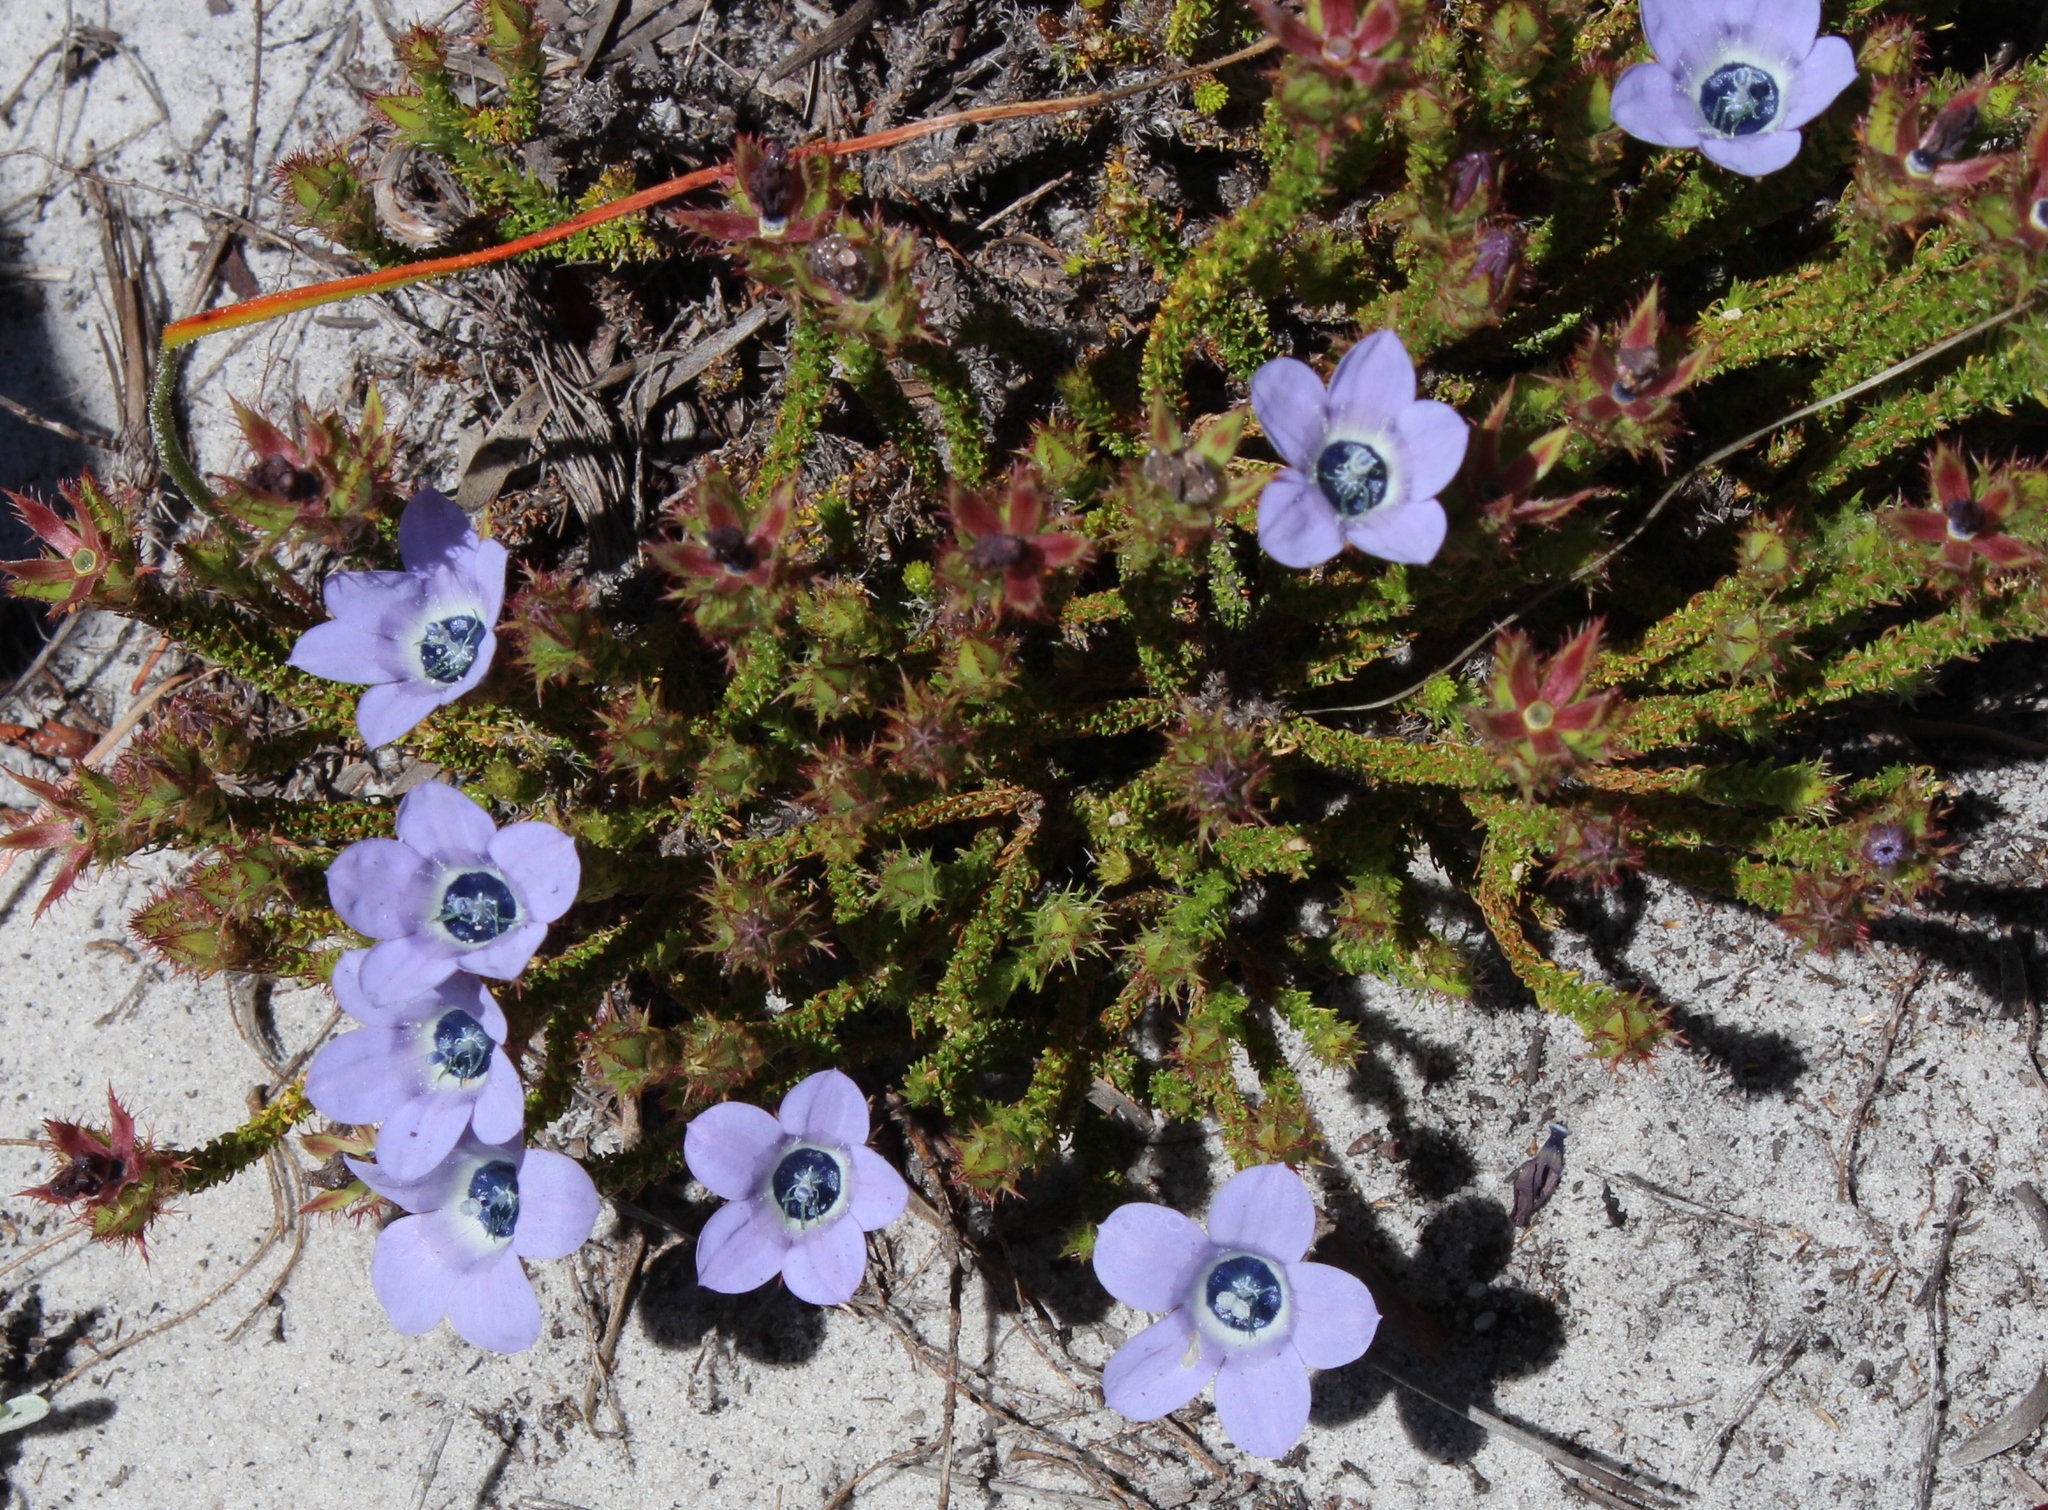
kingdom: Plantae
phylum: Tracheophyta
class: Magnoliopsida
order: Asterales
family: Campanulaceae
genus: Roella
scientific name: Roella triflora
